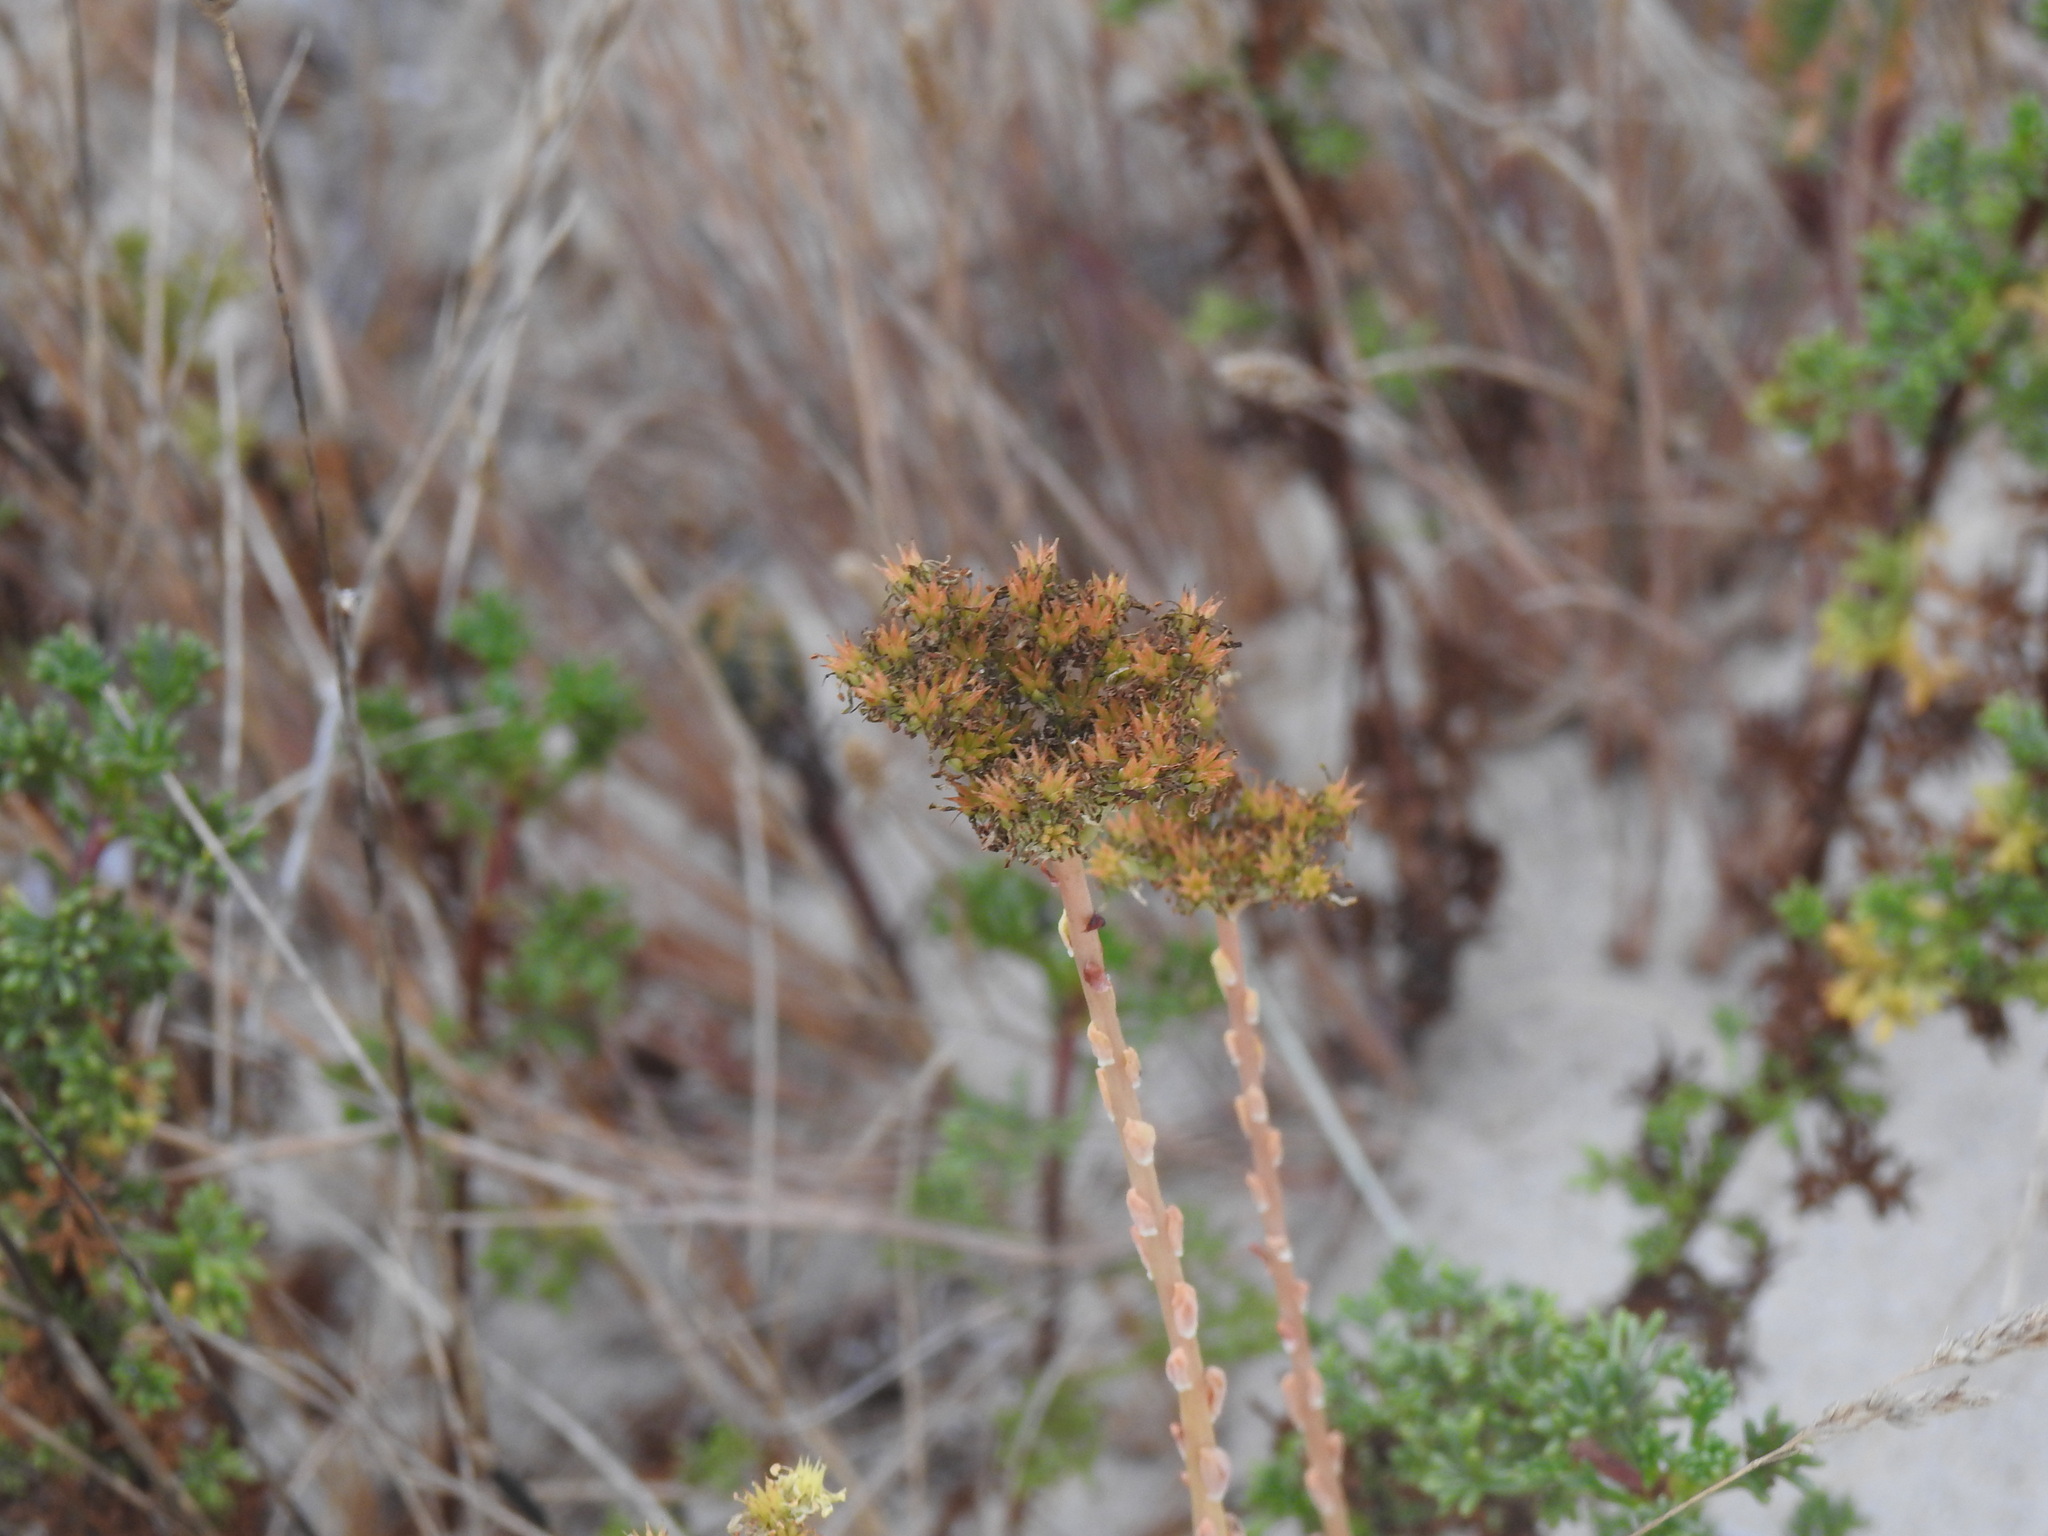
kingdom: Plantae
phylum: Tracheophyta
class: Magnoliopsida
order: Saxifragales
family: Crassulaceae
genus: Petrosedum
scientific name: Petrosedum sediforme
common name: Pale stonecrop
